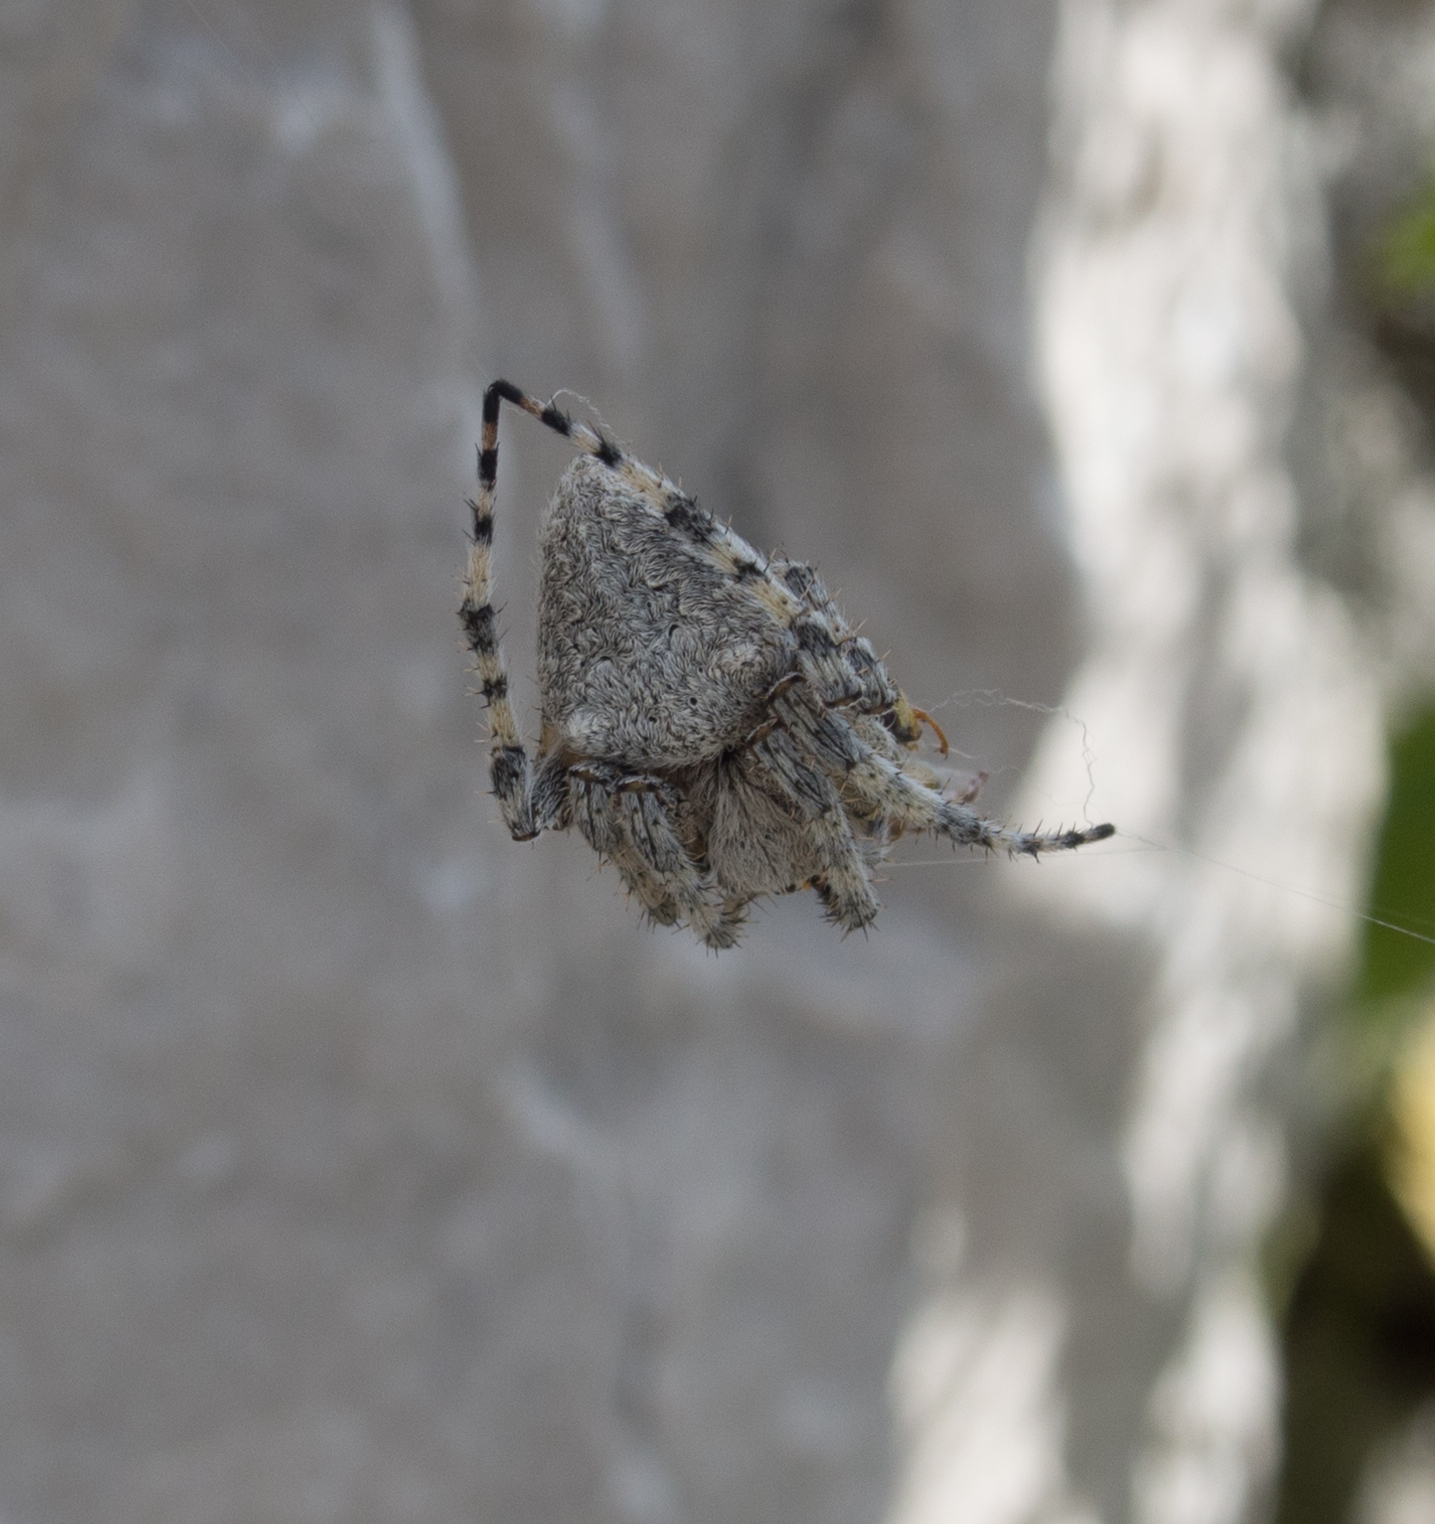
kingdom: Animalia
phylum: Arthropoda
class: Arachnida
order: Araneae
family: Araneidae
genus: Araneus
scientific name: Araneus circe
